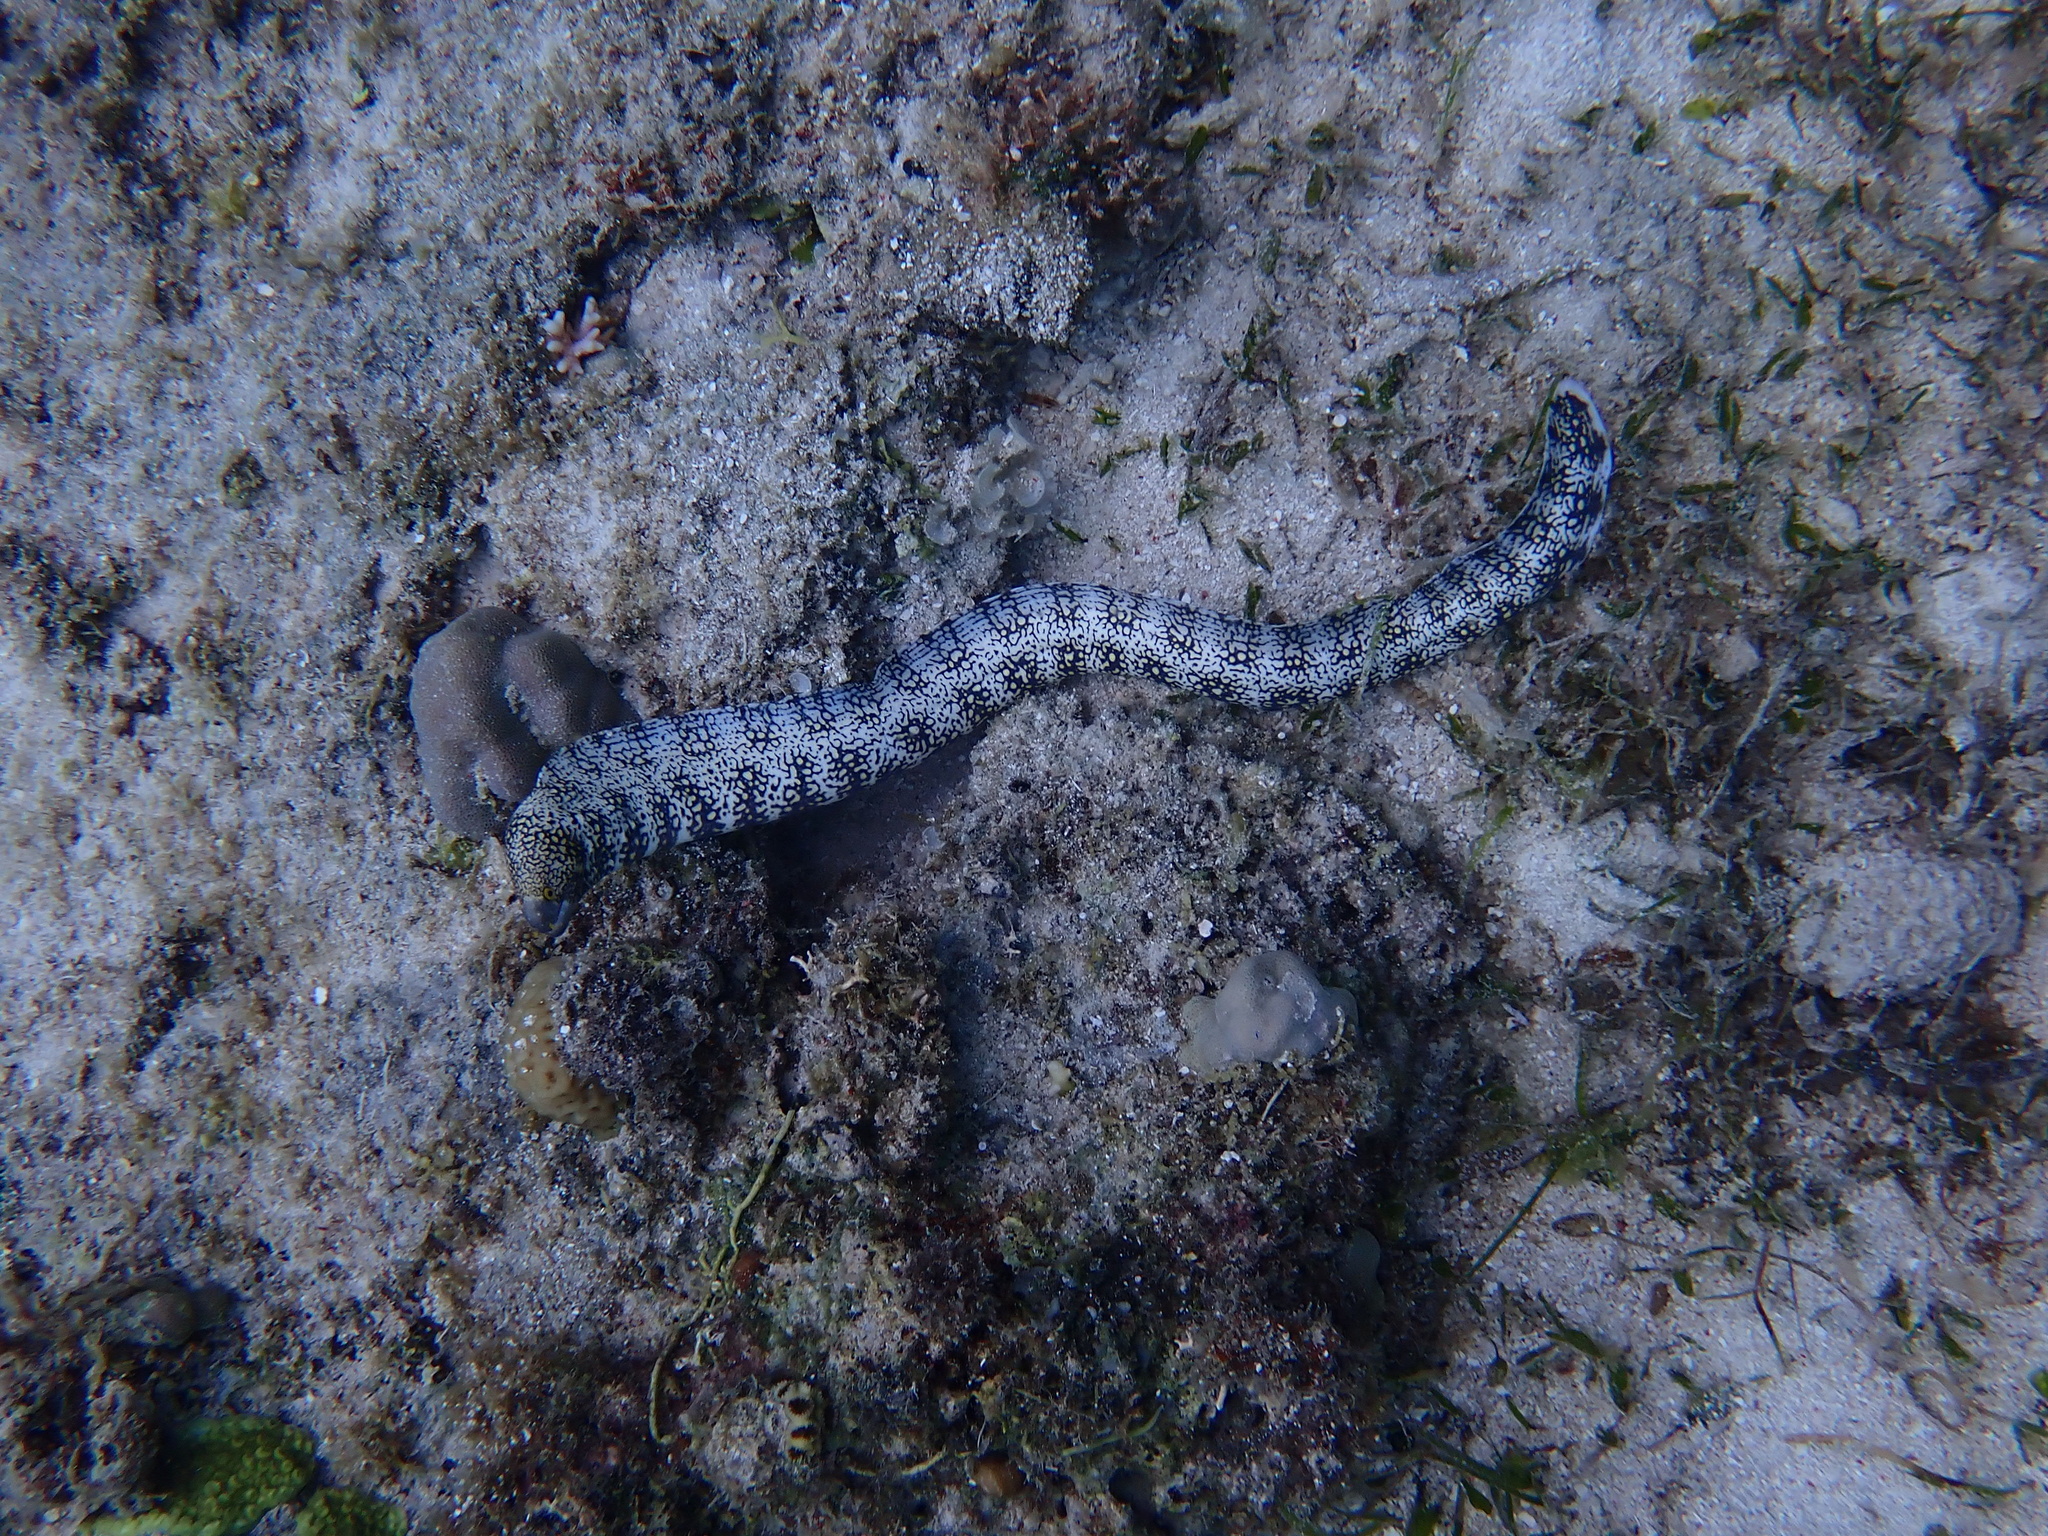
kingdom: Animalia
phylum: Chordata
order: Anguilliformes
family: Muraenidae
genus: Echidna
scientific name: Echidna nebulosa
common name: Snowflake moray
